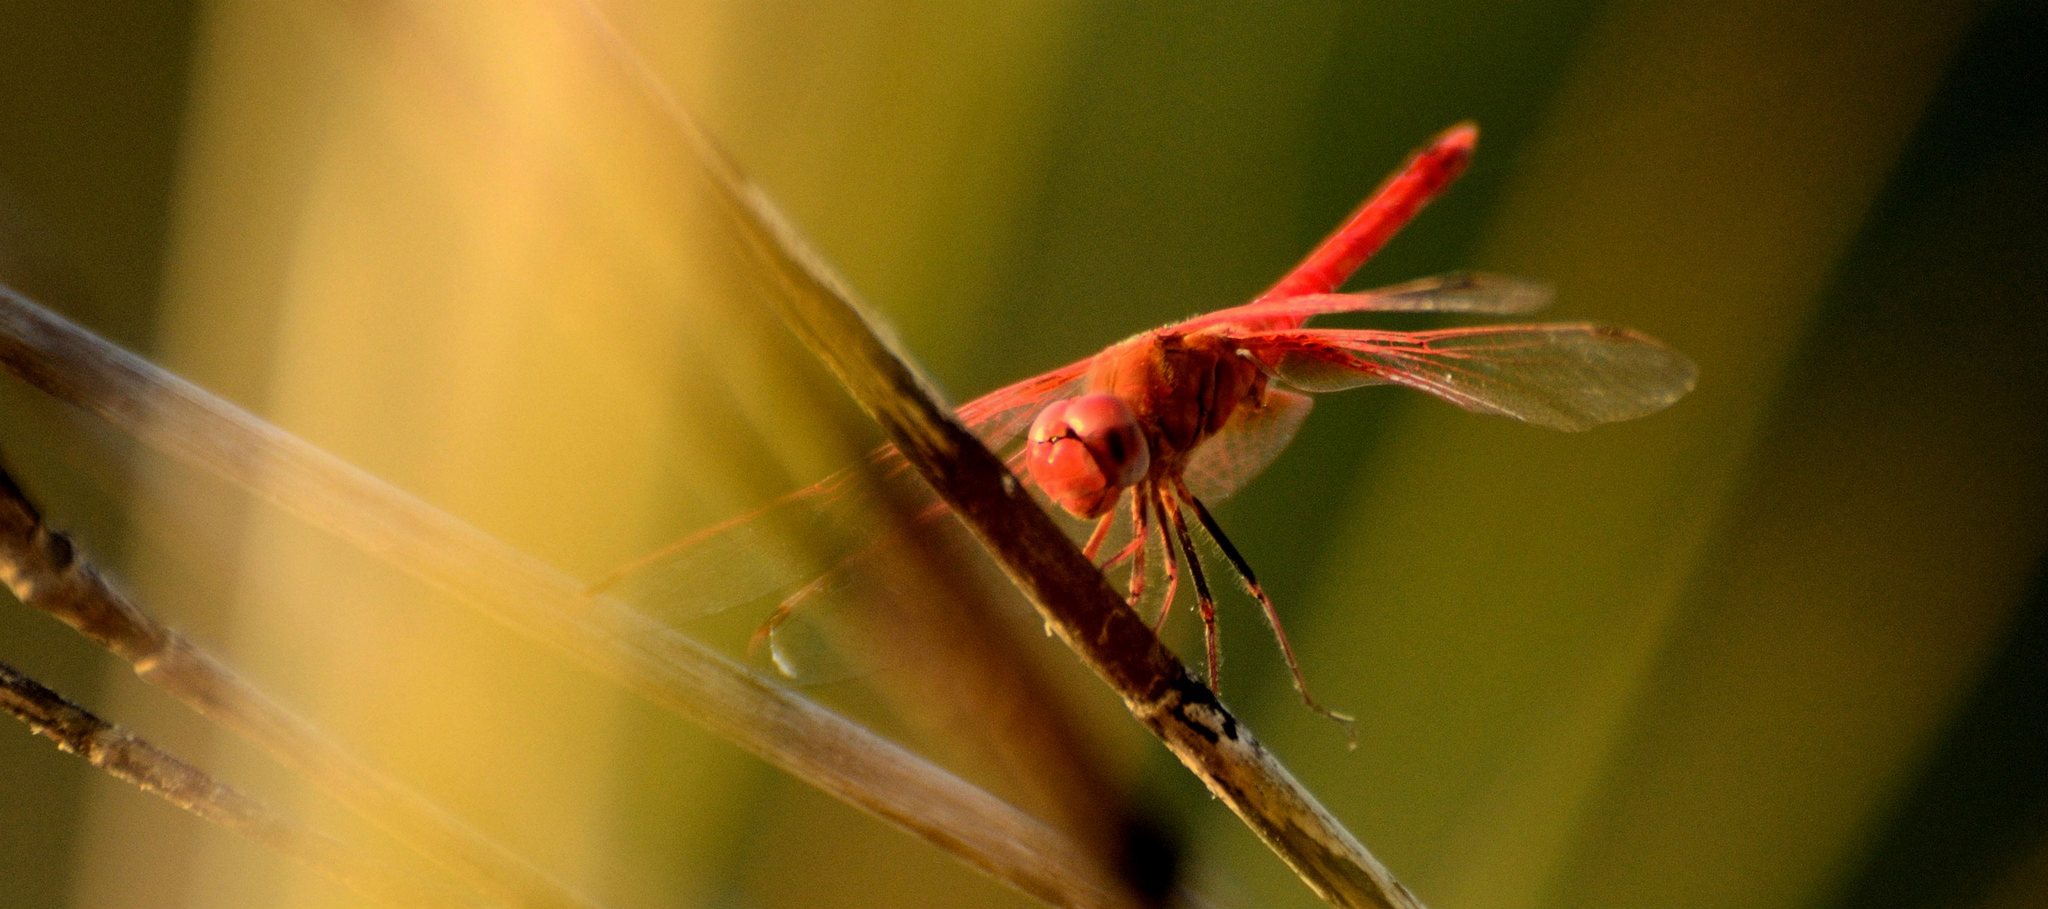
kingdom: Animalia
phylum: Arthropoda
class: Insecta
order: Odonata
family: Libellulidae
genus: Trithemis
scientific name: Trithemis aurora
